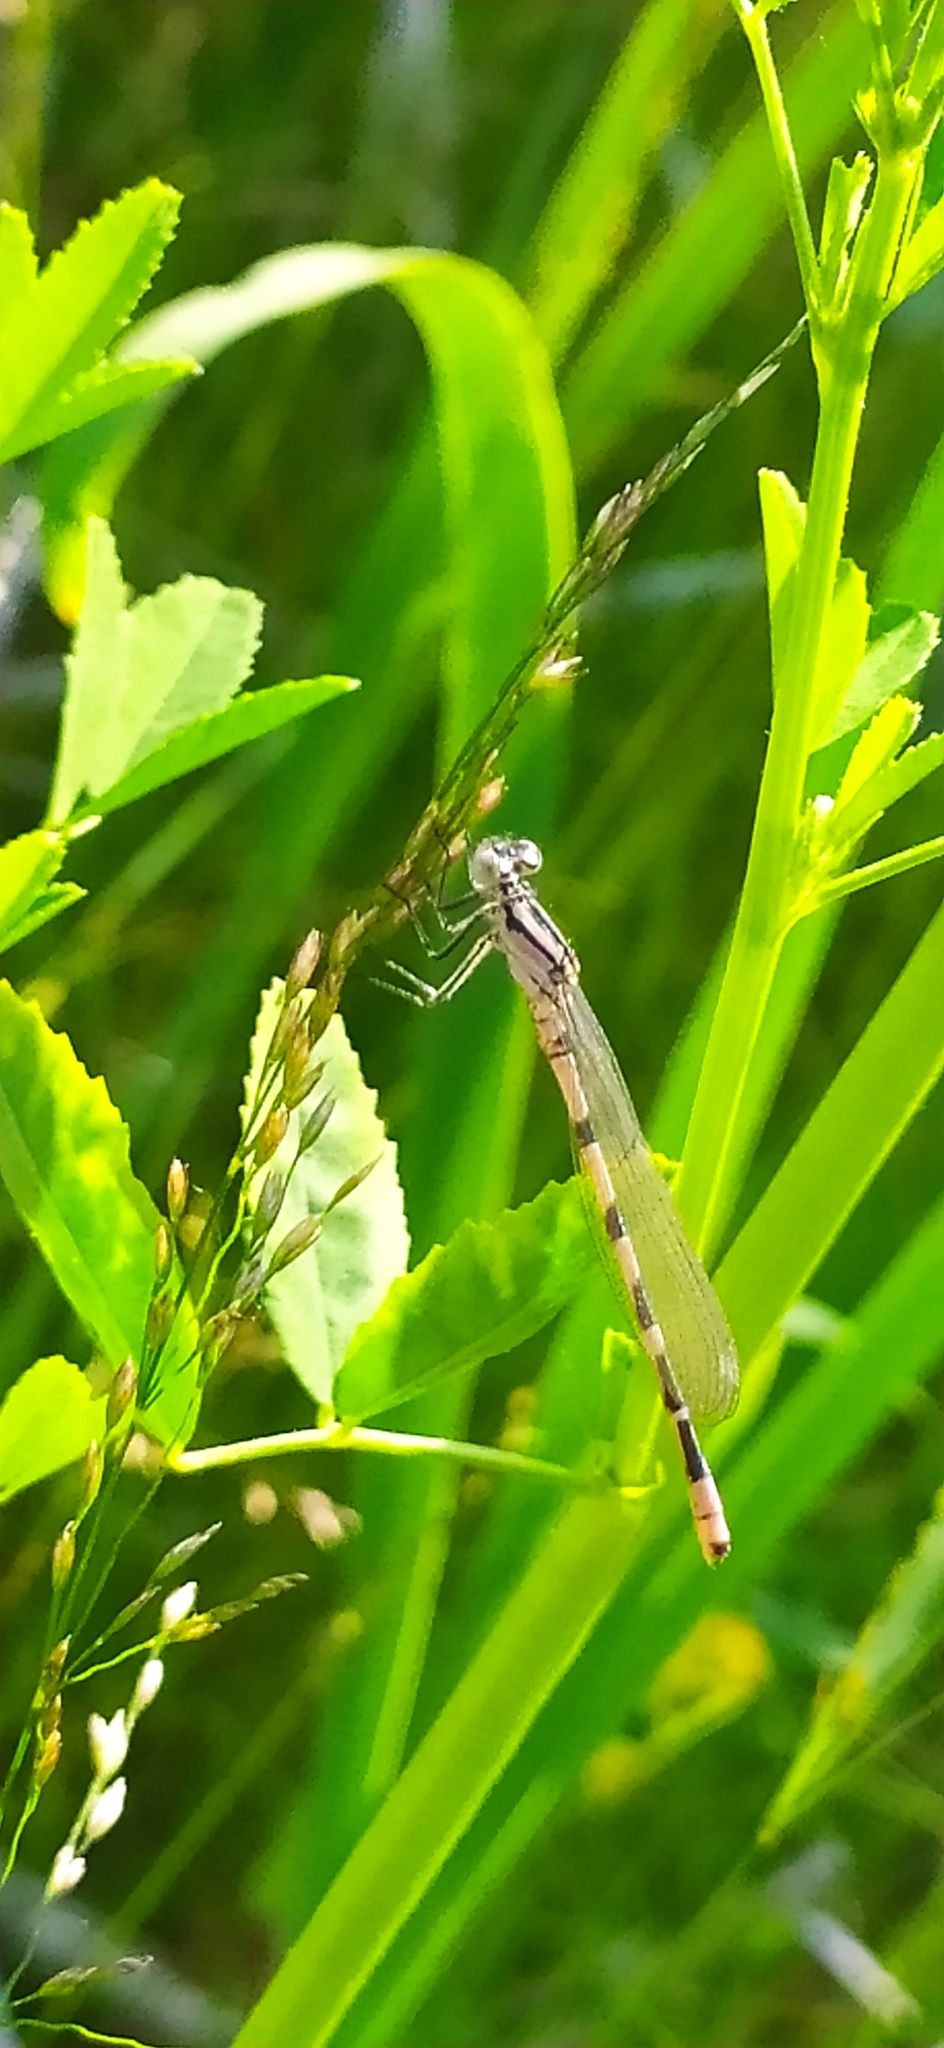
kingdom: Animalia
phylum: Arthropoda
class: Insecta
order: Odonata
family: Coenagrionidae
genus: Enallagma
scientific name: Enallagma cyathigerum
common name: Common blue damselfly
